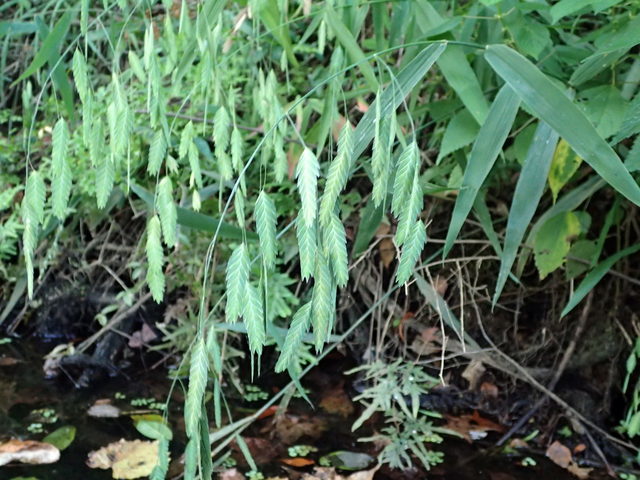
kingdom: Plantae
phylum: Tracheophyta
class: Liliopsida
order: Poales
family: Poaceae
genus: Chasmanthium
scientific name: Chasmanthium latifolium
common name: Broad-leaved chasmanthium
